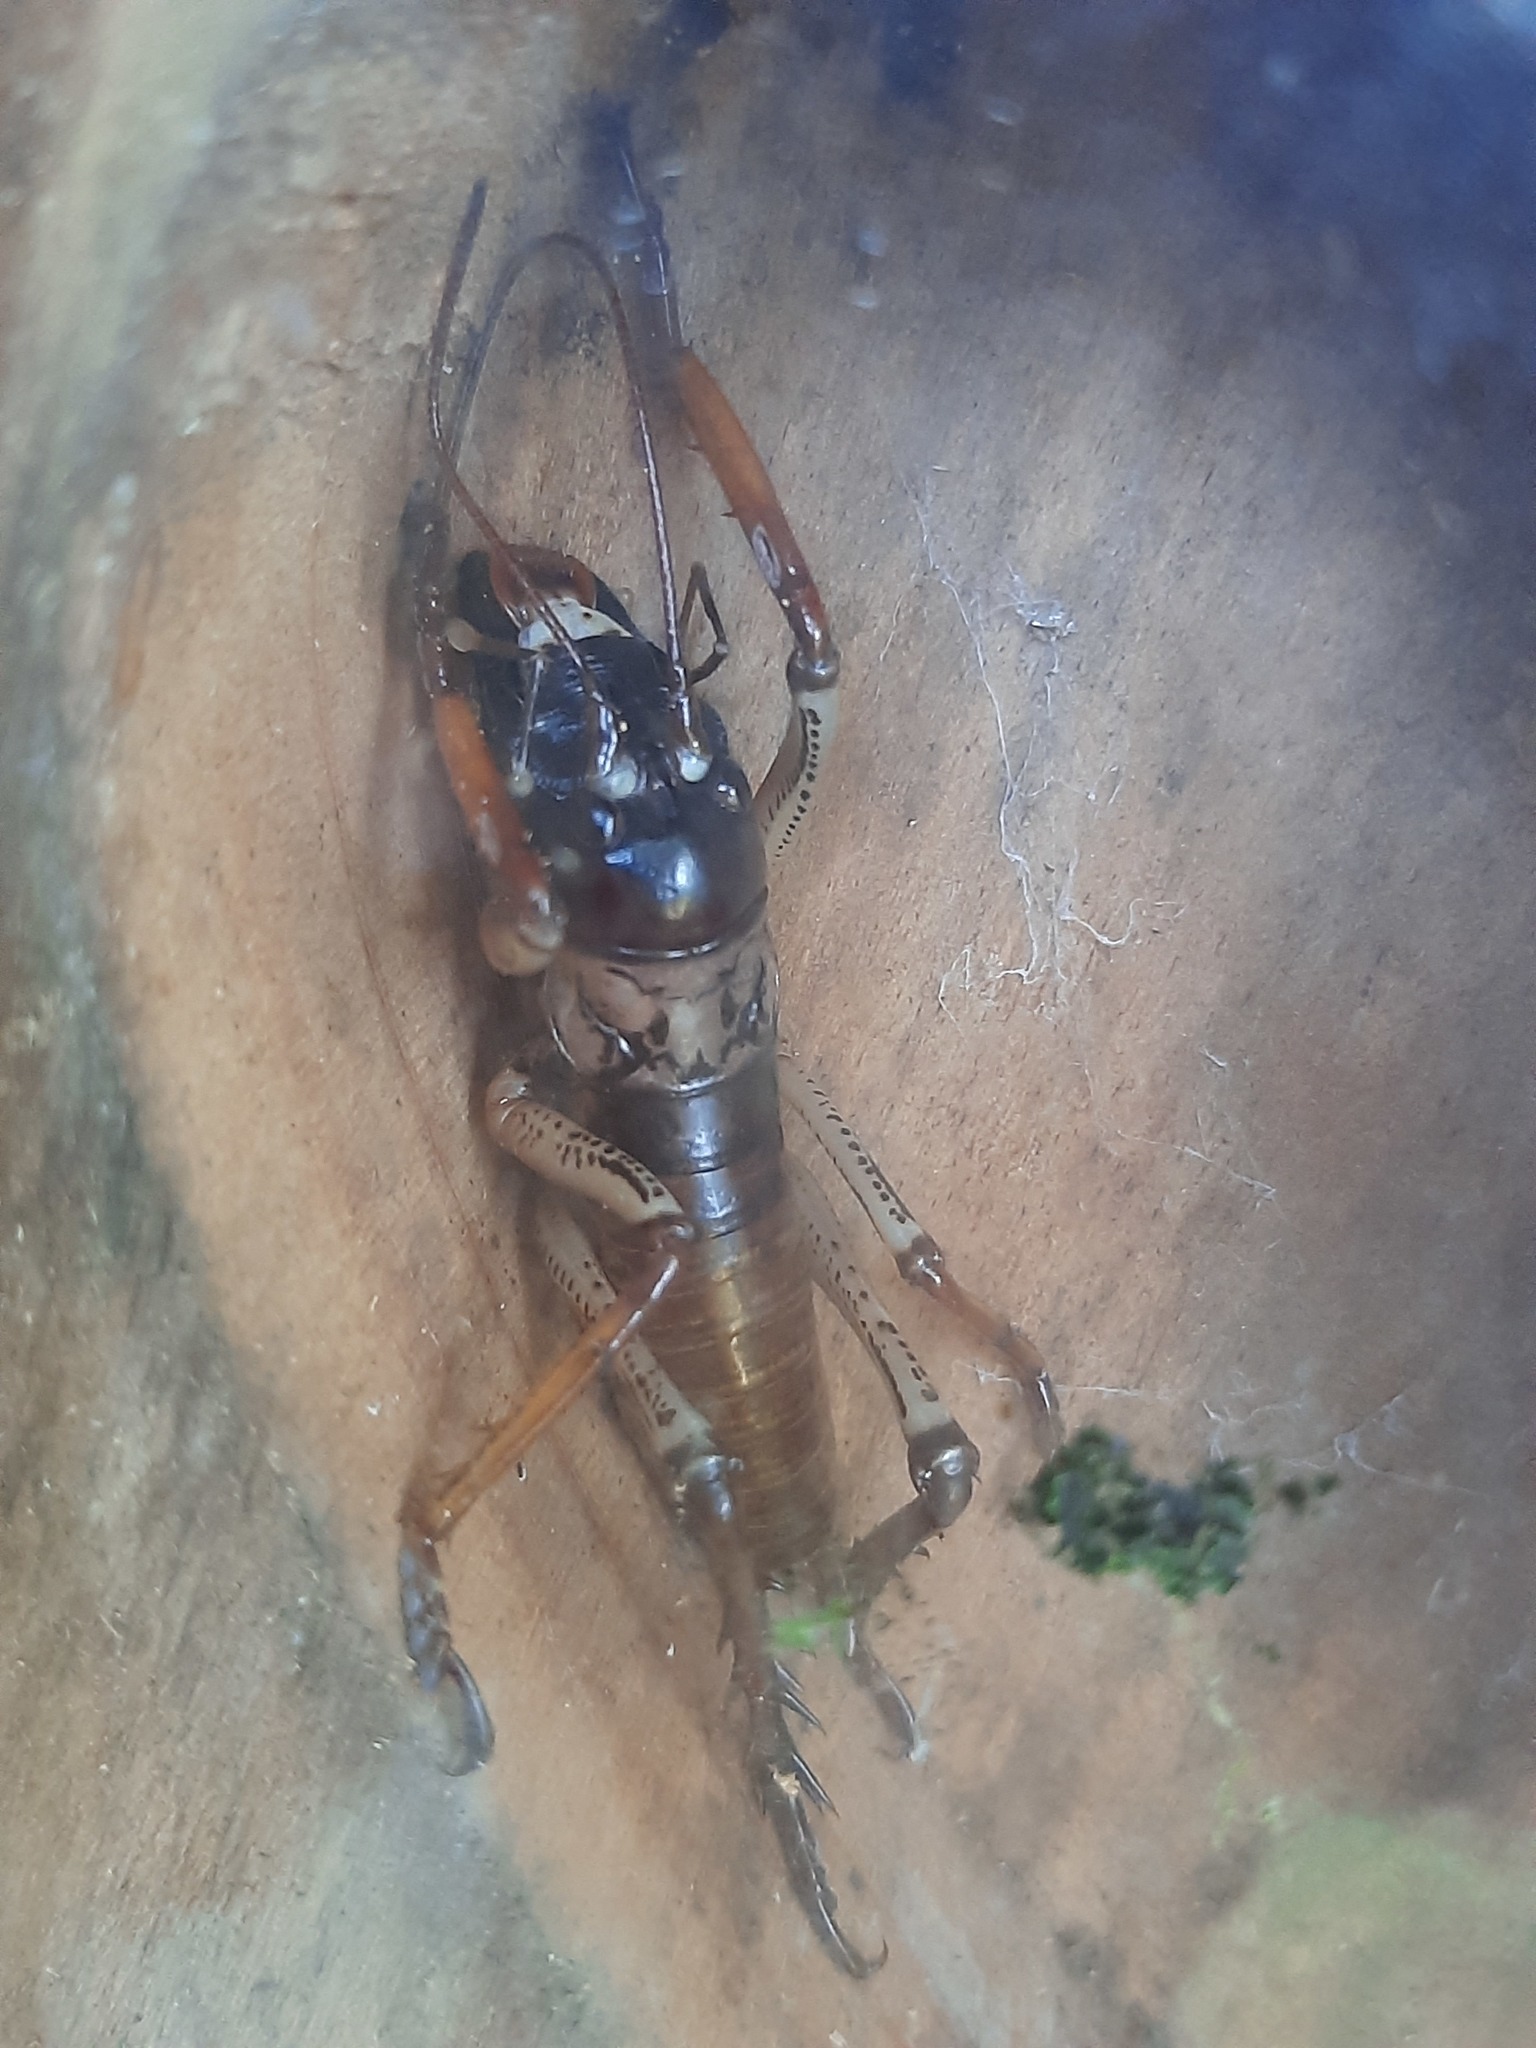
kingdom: Animalia
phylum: Arthropoda
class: Insecta
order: Orthoptera
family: Anostostomatidae
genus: Hemideina
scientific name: Hemideina thoracica
